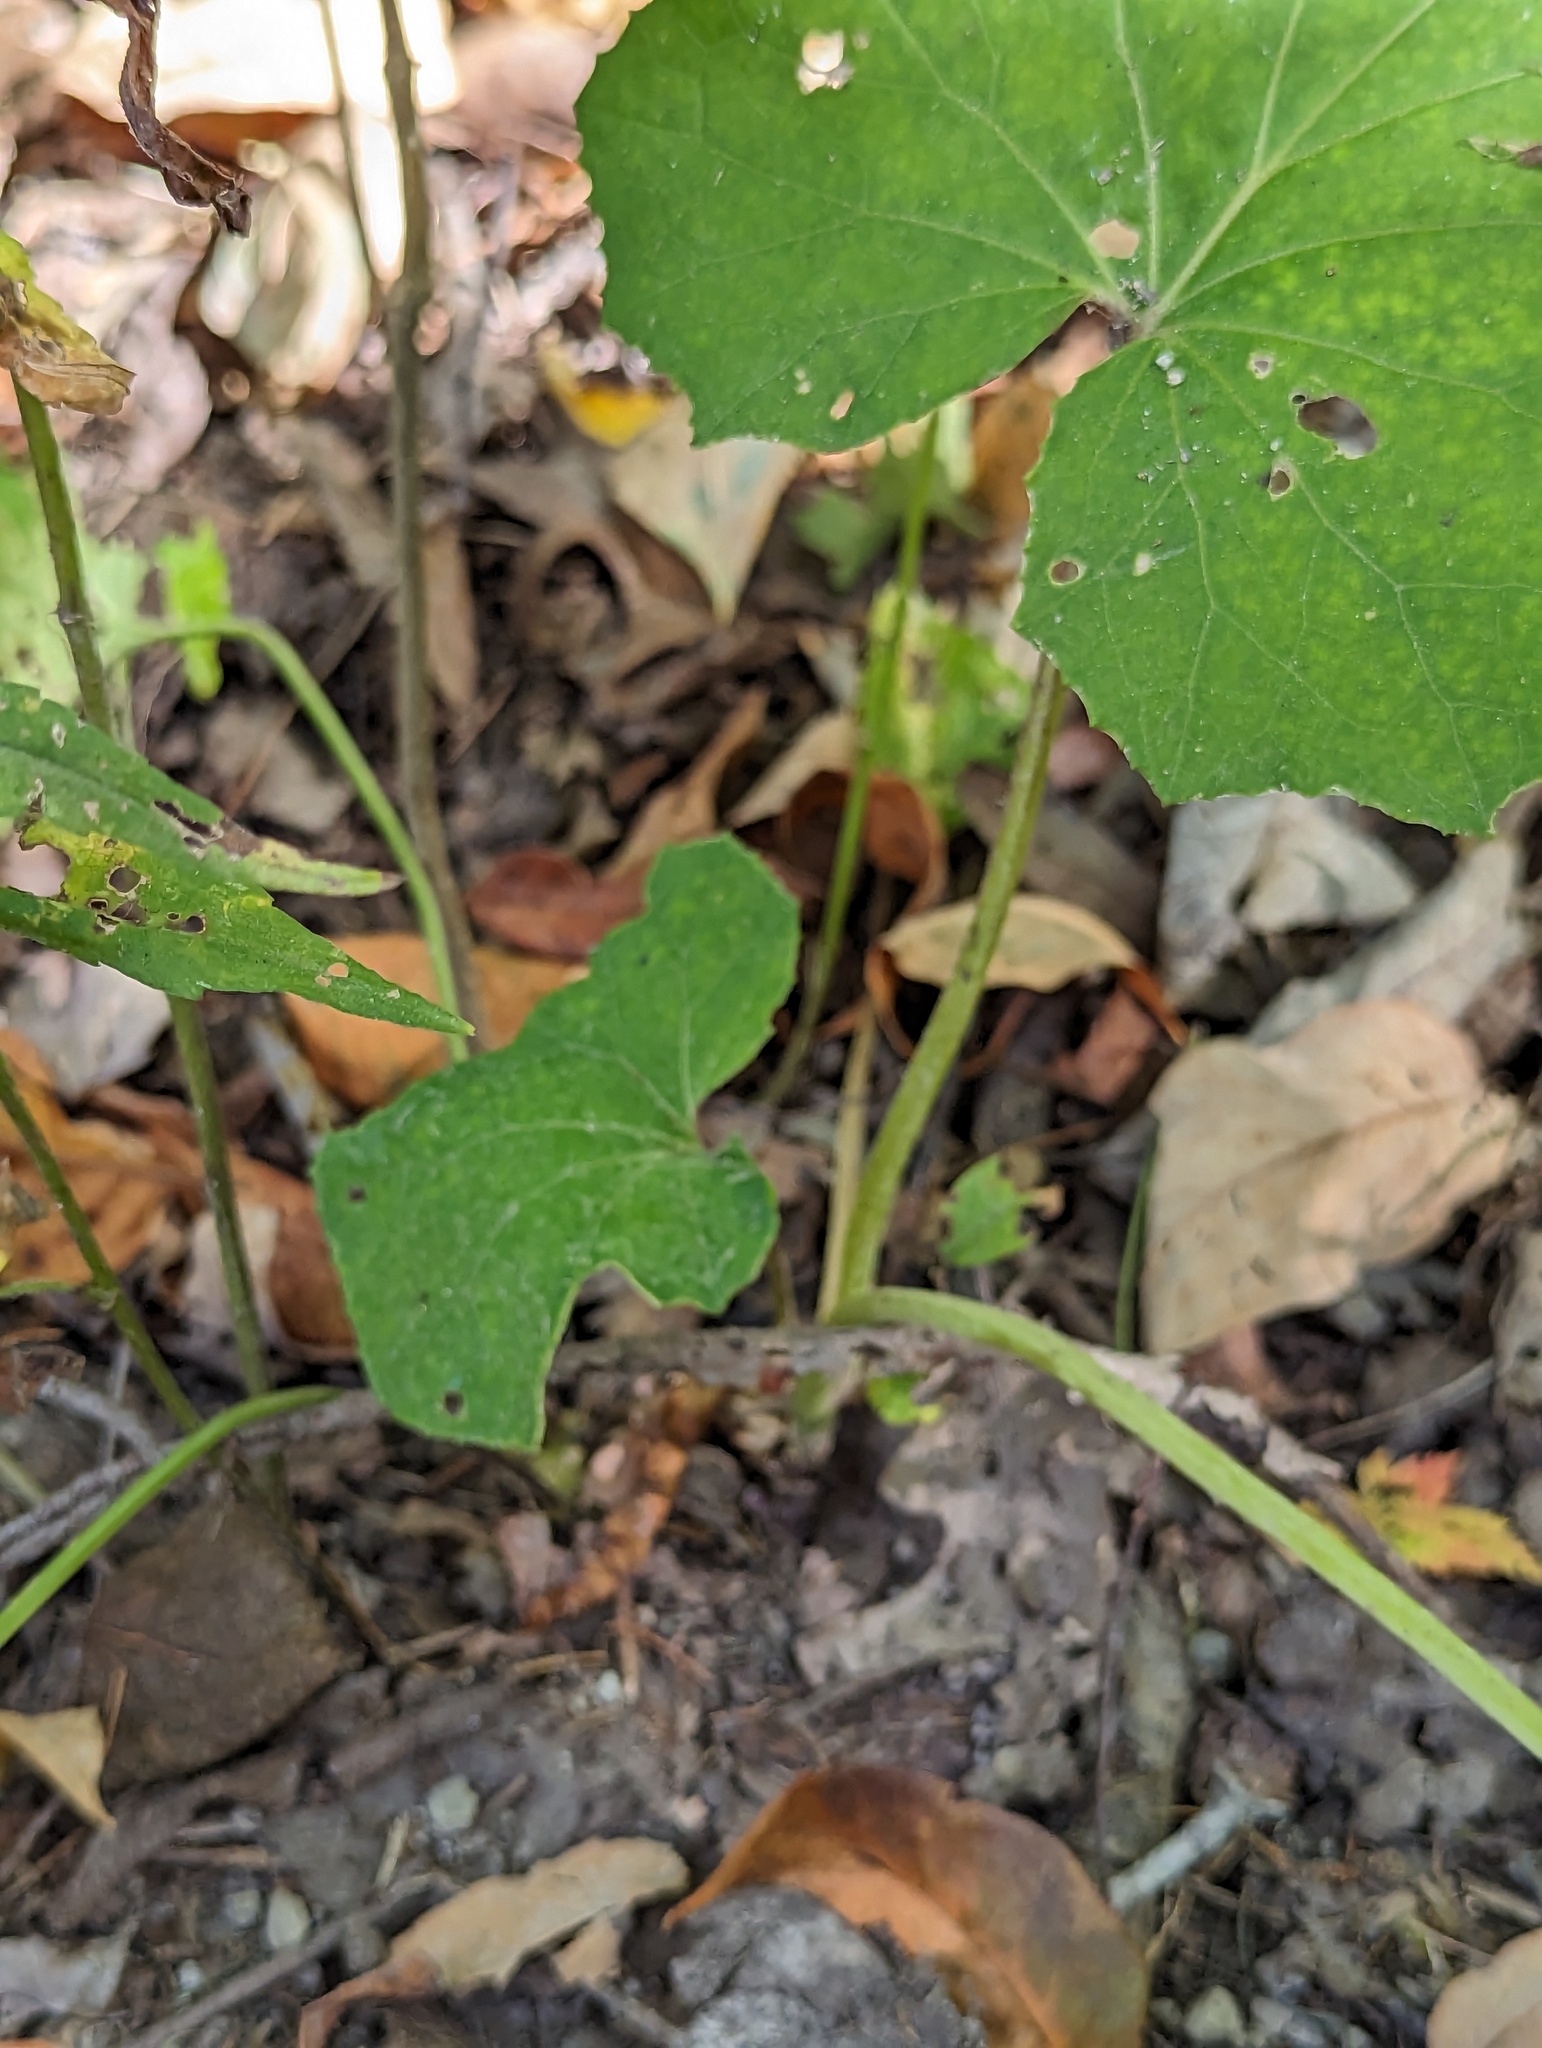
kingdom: Plantae
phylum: Tracheophyta
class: Magnoliopsida
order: Asterales
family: Asteraceae
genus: Tussilago
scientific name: Tussilago farfara
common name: Coltsfoot
